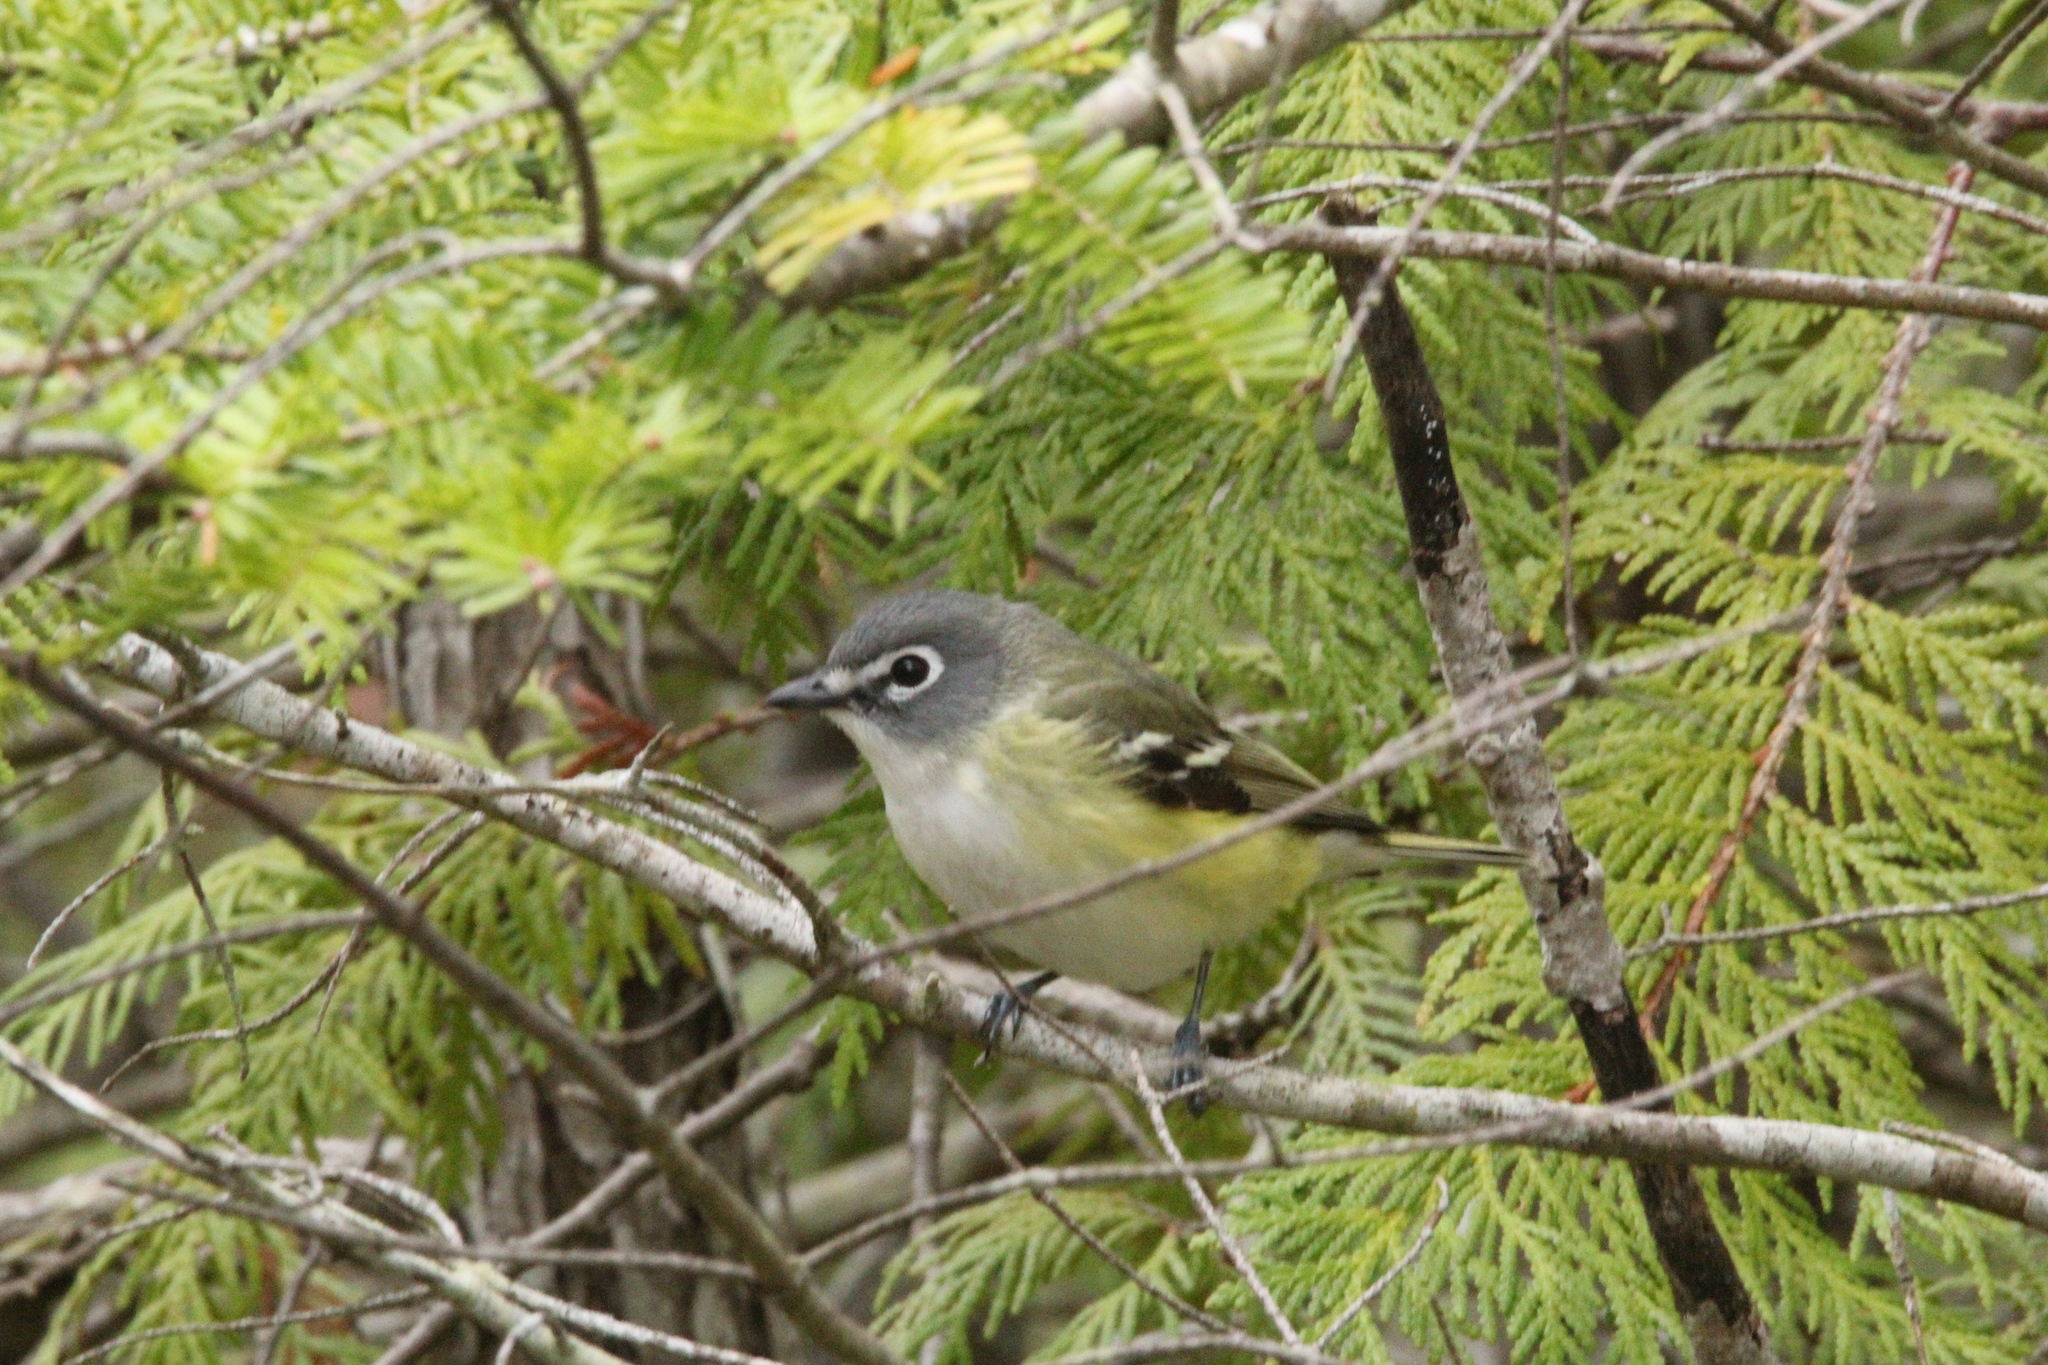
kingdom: Animalia
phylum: Chordata
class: Aves
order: Passeriformes
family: Vireonidae
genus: Vireo
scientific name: Vireo solitarius
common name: Blue-headed vireo
